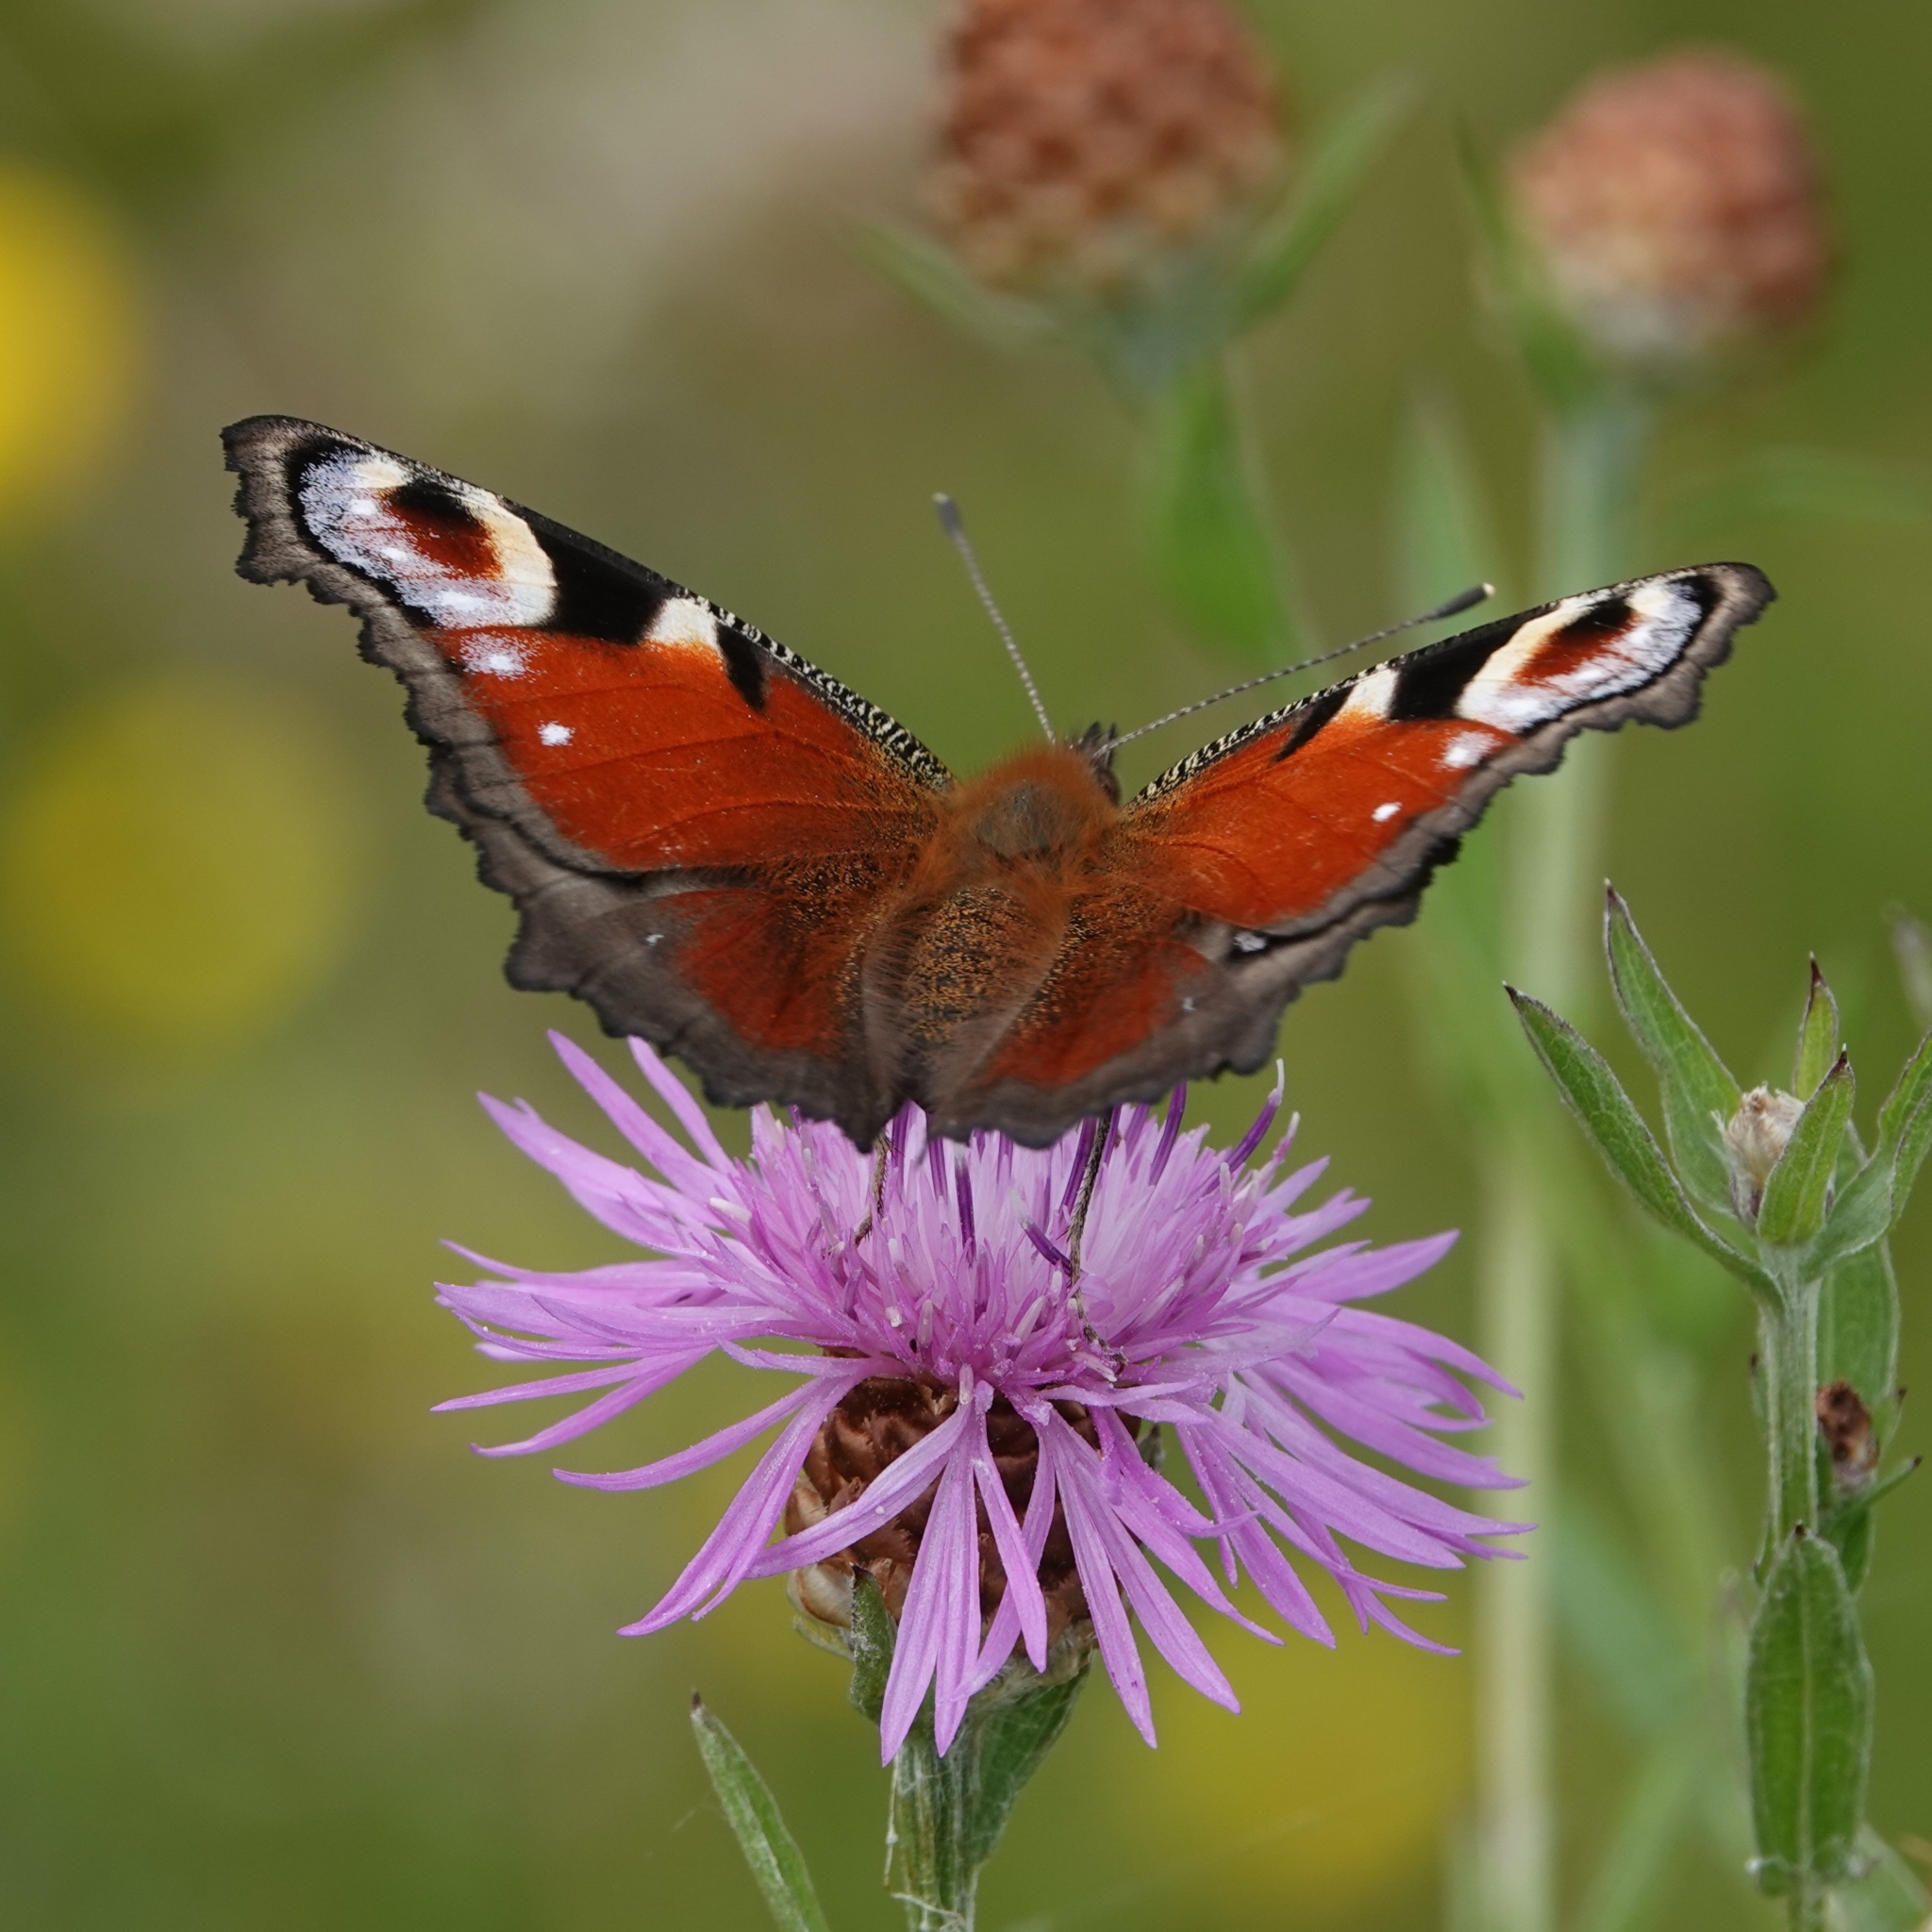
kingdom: Animalia
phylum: Arthropoda
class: Insecta
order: Lepidoptera
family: Nymphalidae
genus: Aglais
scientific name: Aglais io
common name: Peacock
